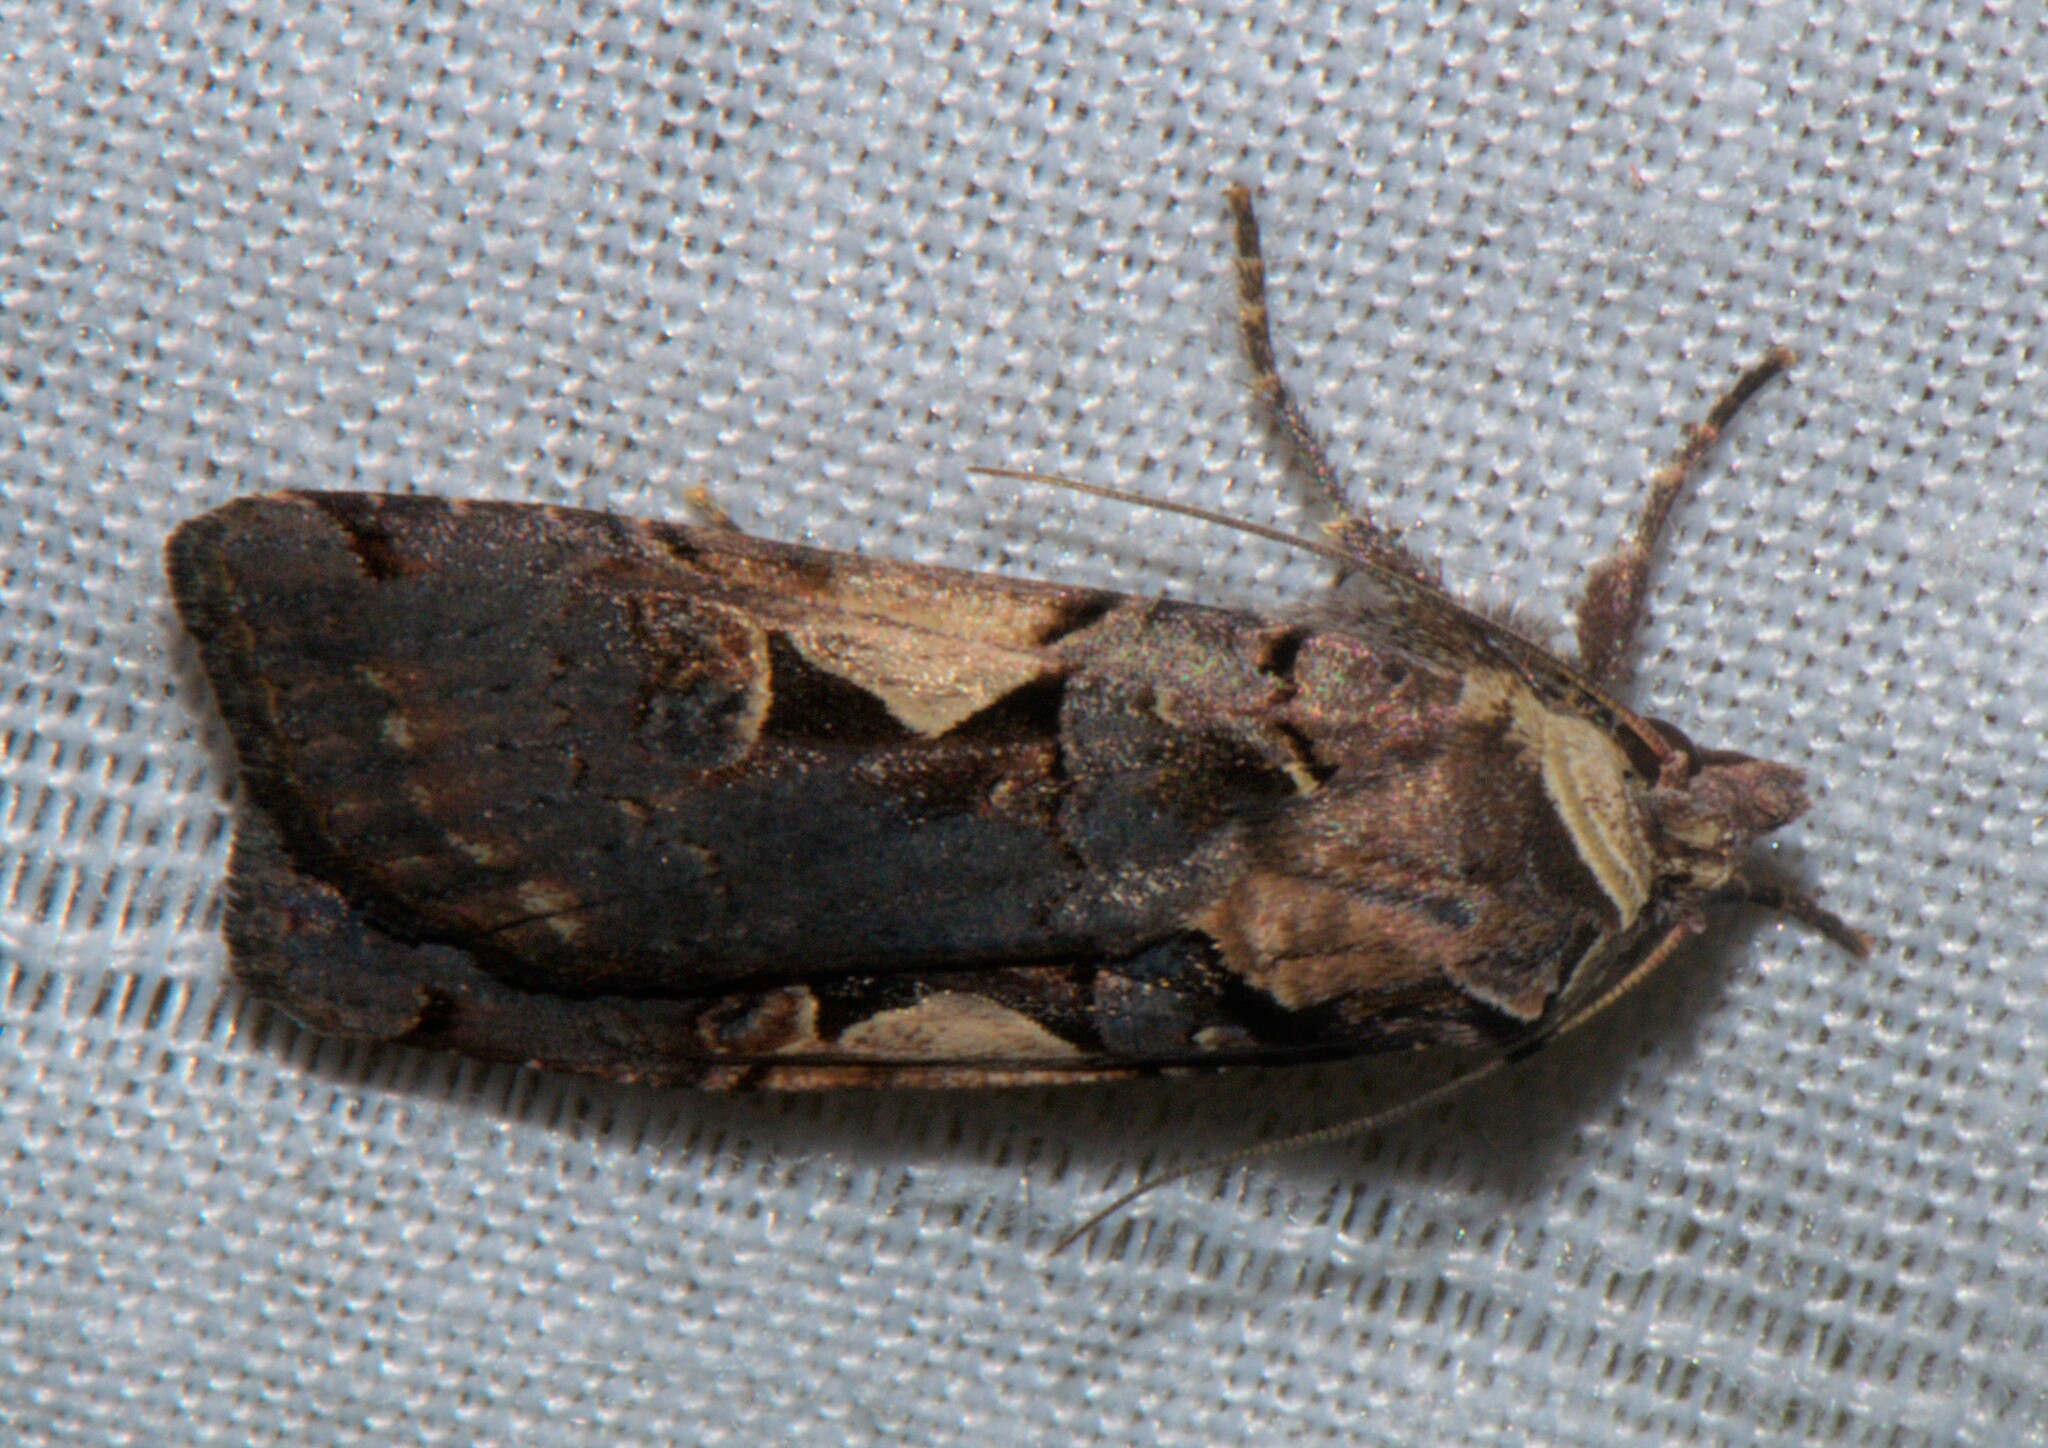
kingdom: Animalia
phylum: Arthropoda
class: Insecta
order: Lepidoptera
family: Noctuidae
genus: Xestia
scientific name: Xestia c-nigrum
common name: Setaceous hebrew character
